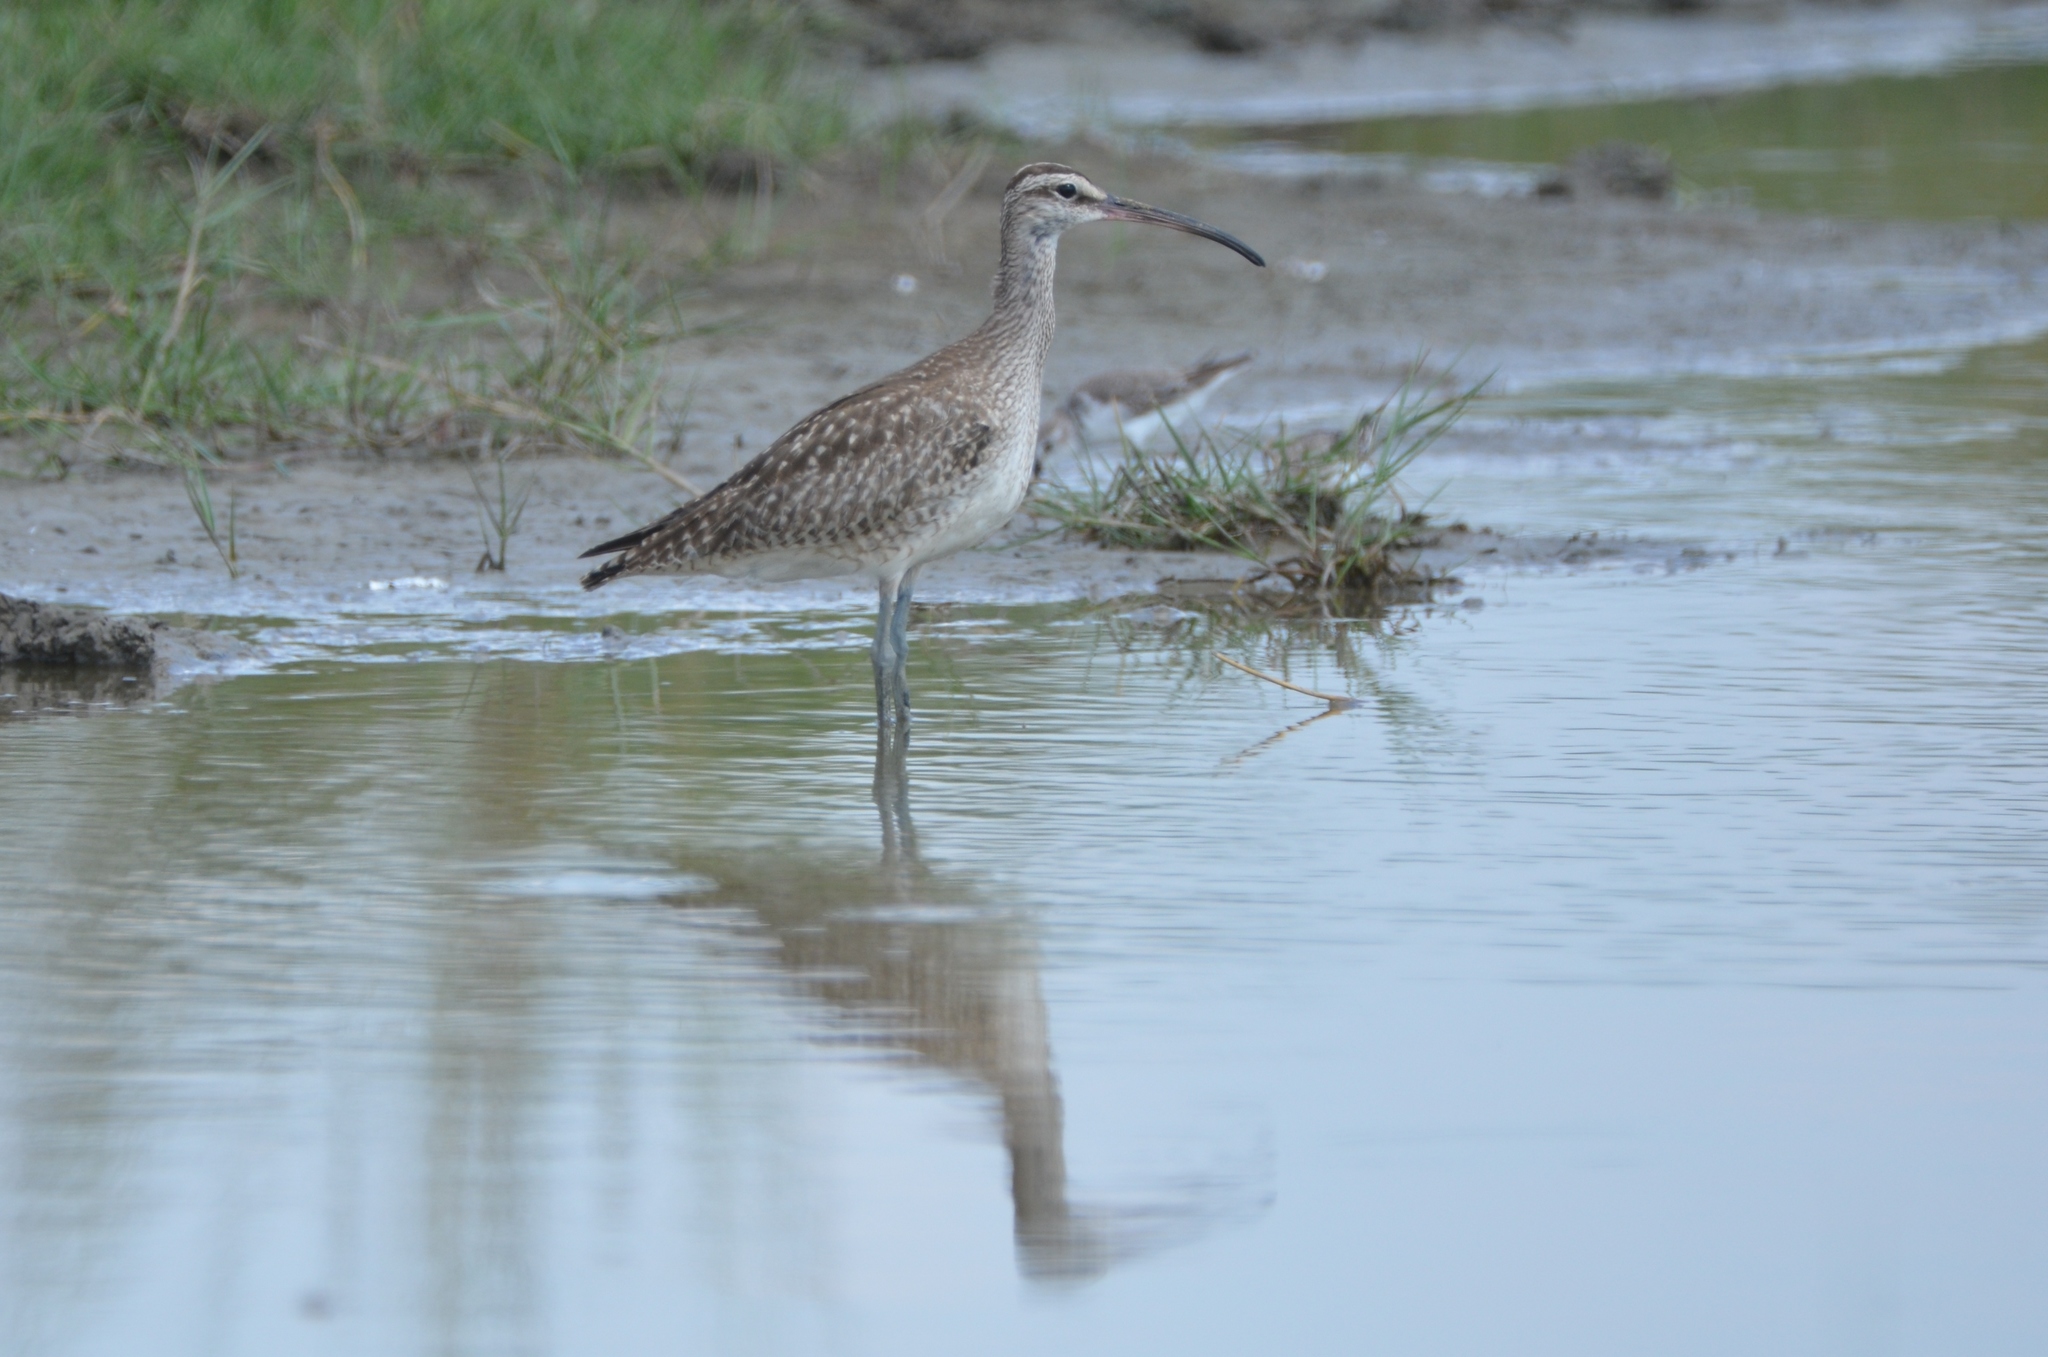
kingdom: Animalia
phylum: Chordata
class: Aves
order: Charadriiformes
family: Scolopacidae
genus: Numenius
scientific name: Numenius phaeopus
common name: Whimbrel
